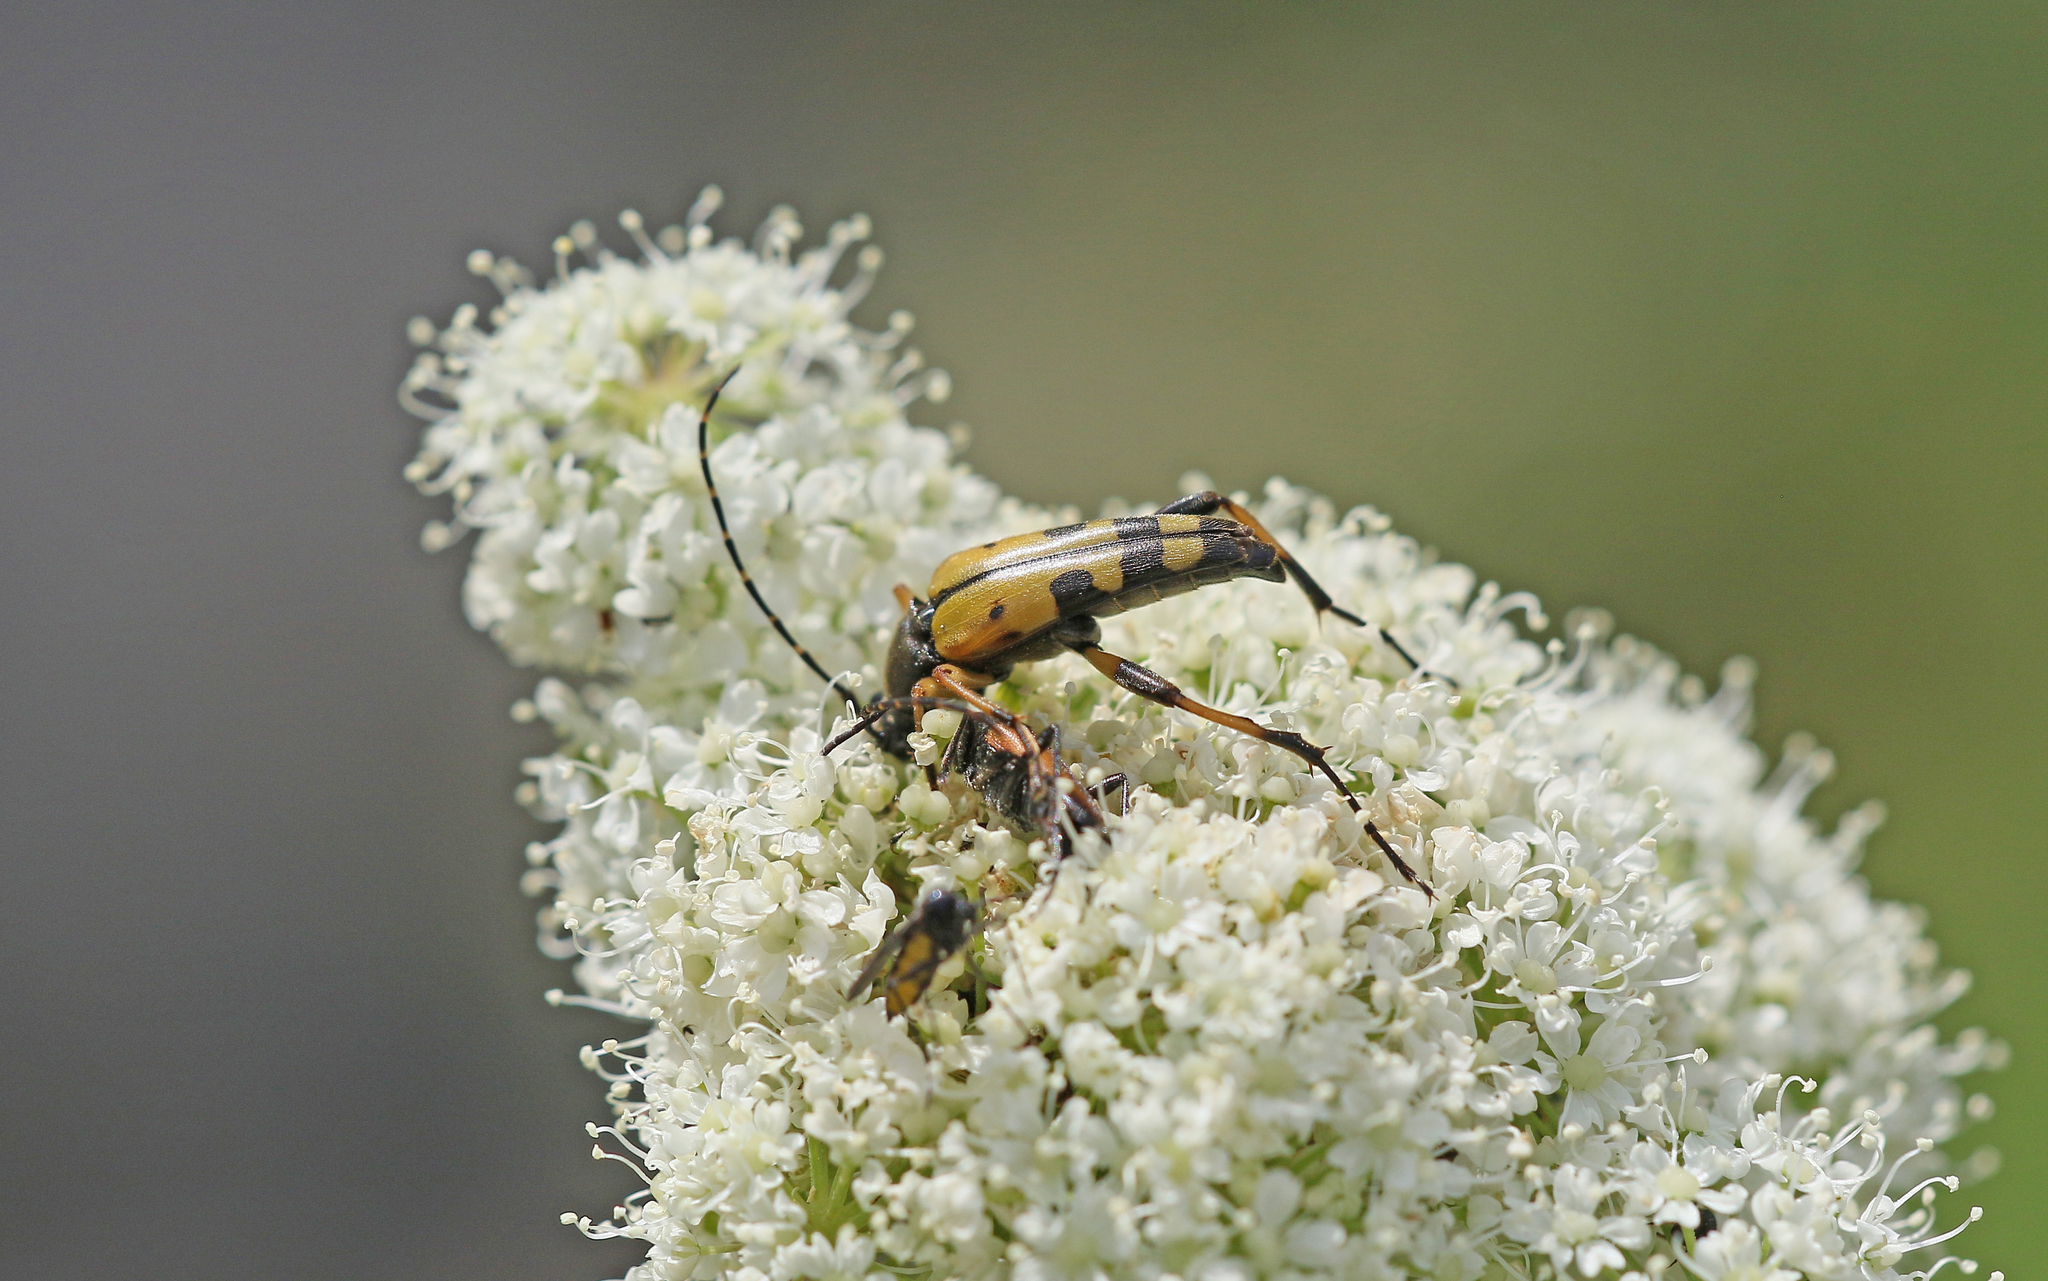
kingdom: Animalia
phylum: Arthropoda
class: Insecta
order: Coleoptera
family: Cerambycidae
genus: Rutpela
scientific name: Rutpela maculata
